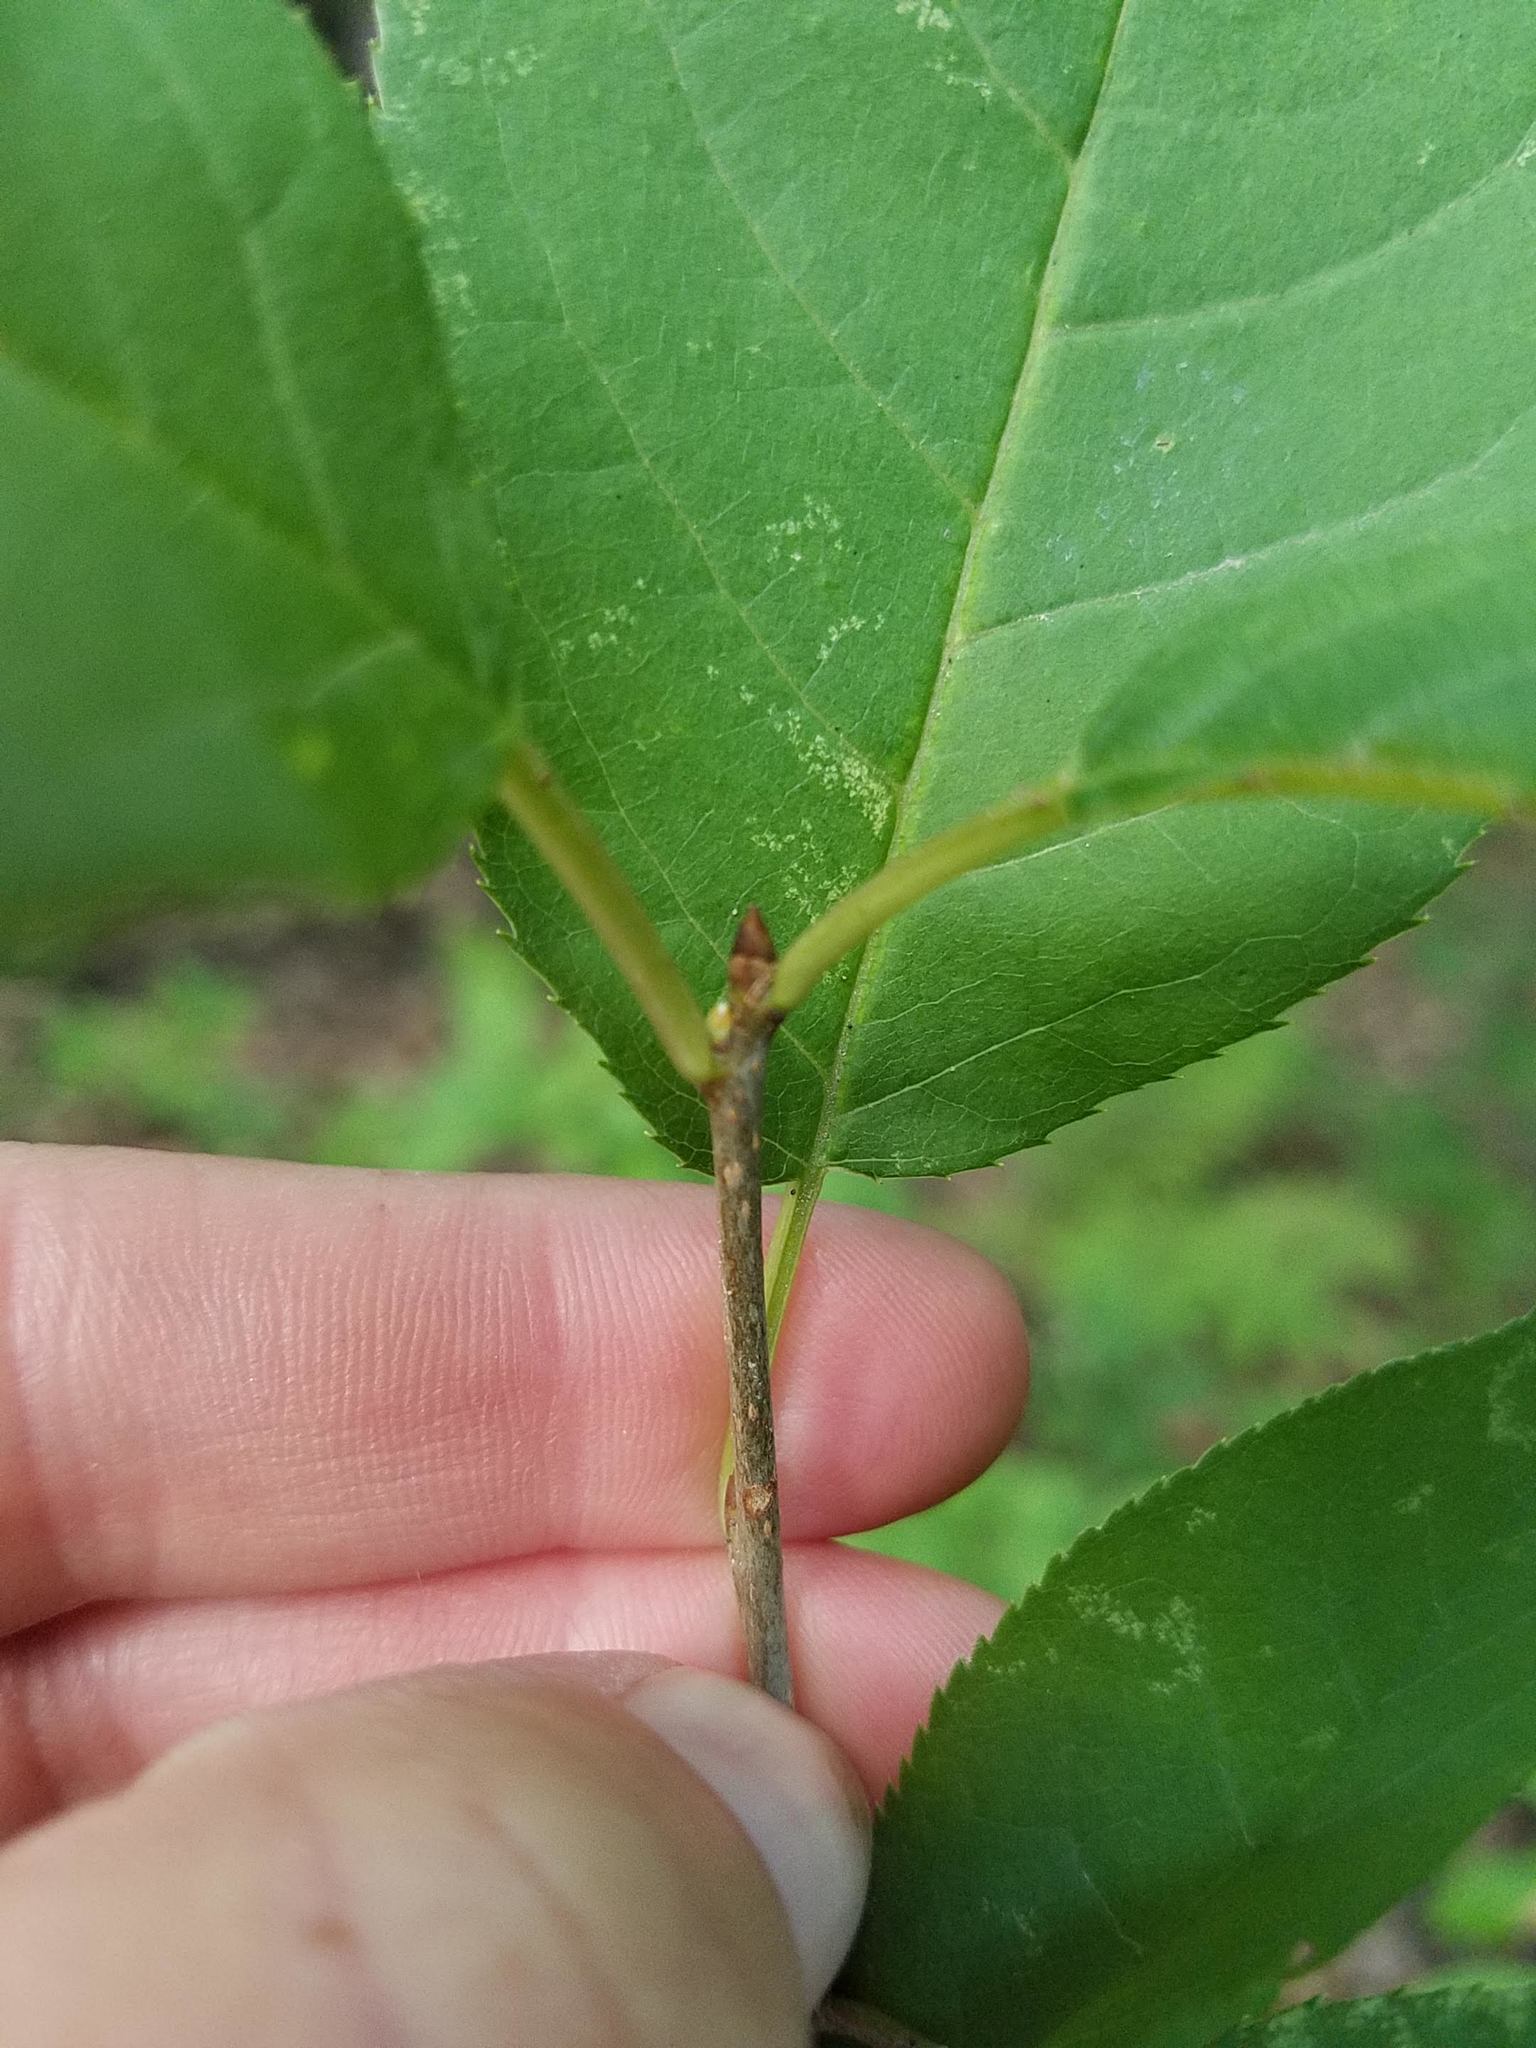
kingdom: Plantae
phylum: Tracheophyta
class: Magnoliopsida
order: Rosales
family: Rosaceae
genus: Prunus
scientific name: Prunus virginiana
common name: Chokecherry
